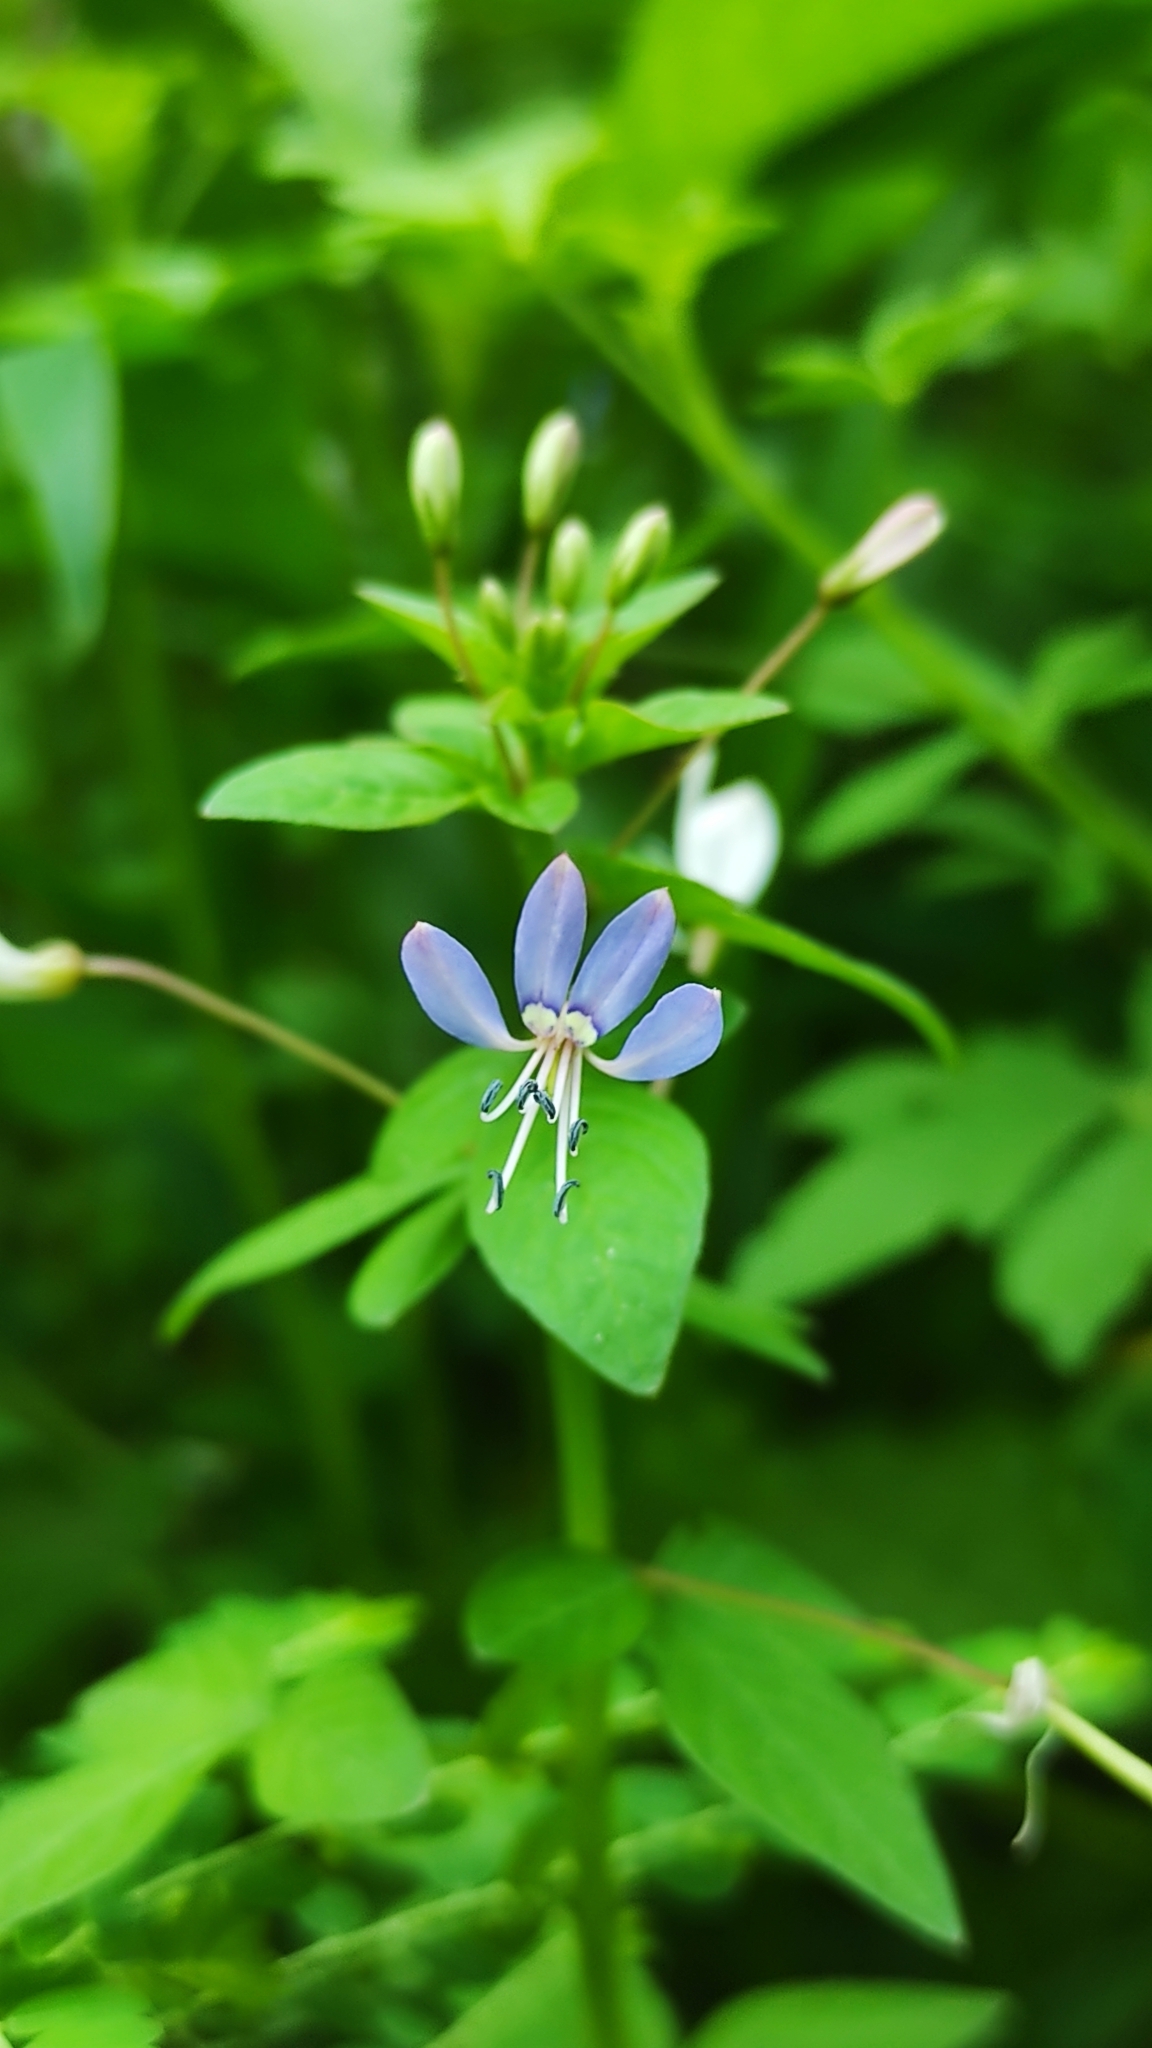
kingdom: Plantae
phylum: Tracheophyta
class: Magnoliopsida
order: Brassicales
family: Cleomaceae
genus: Sieruela
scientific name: Sieruela rutidosperma
